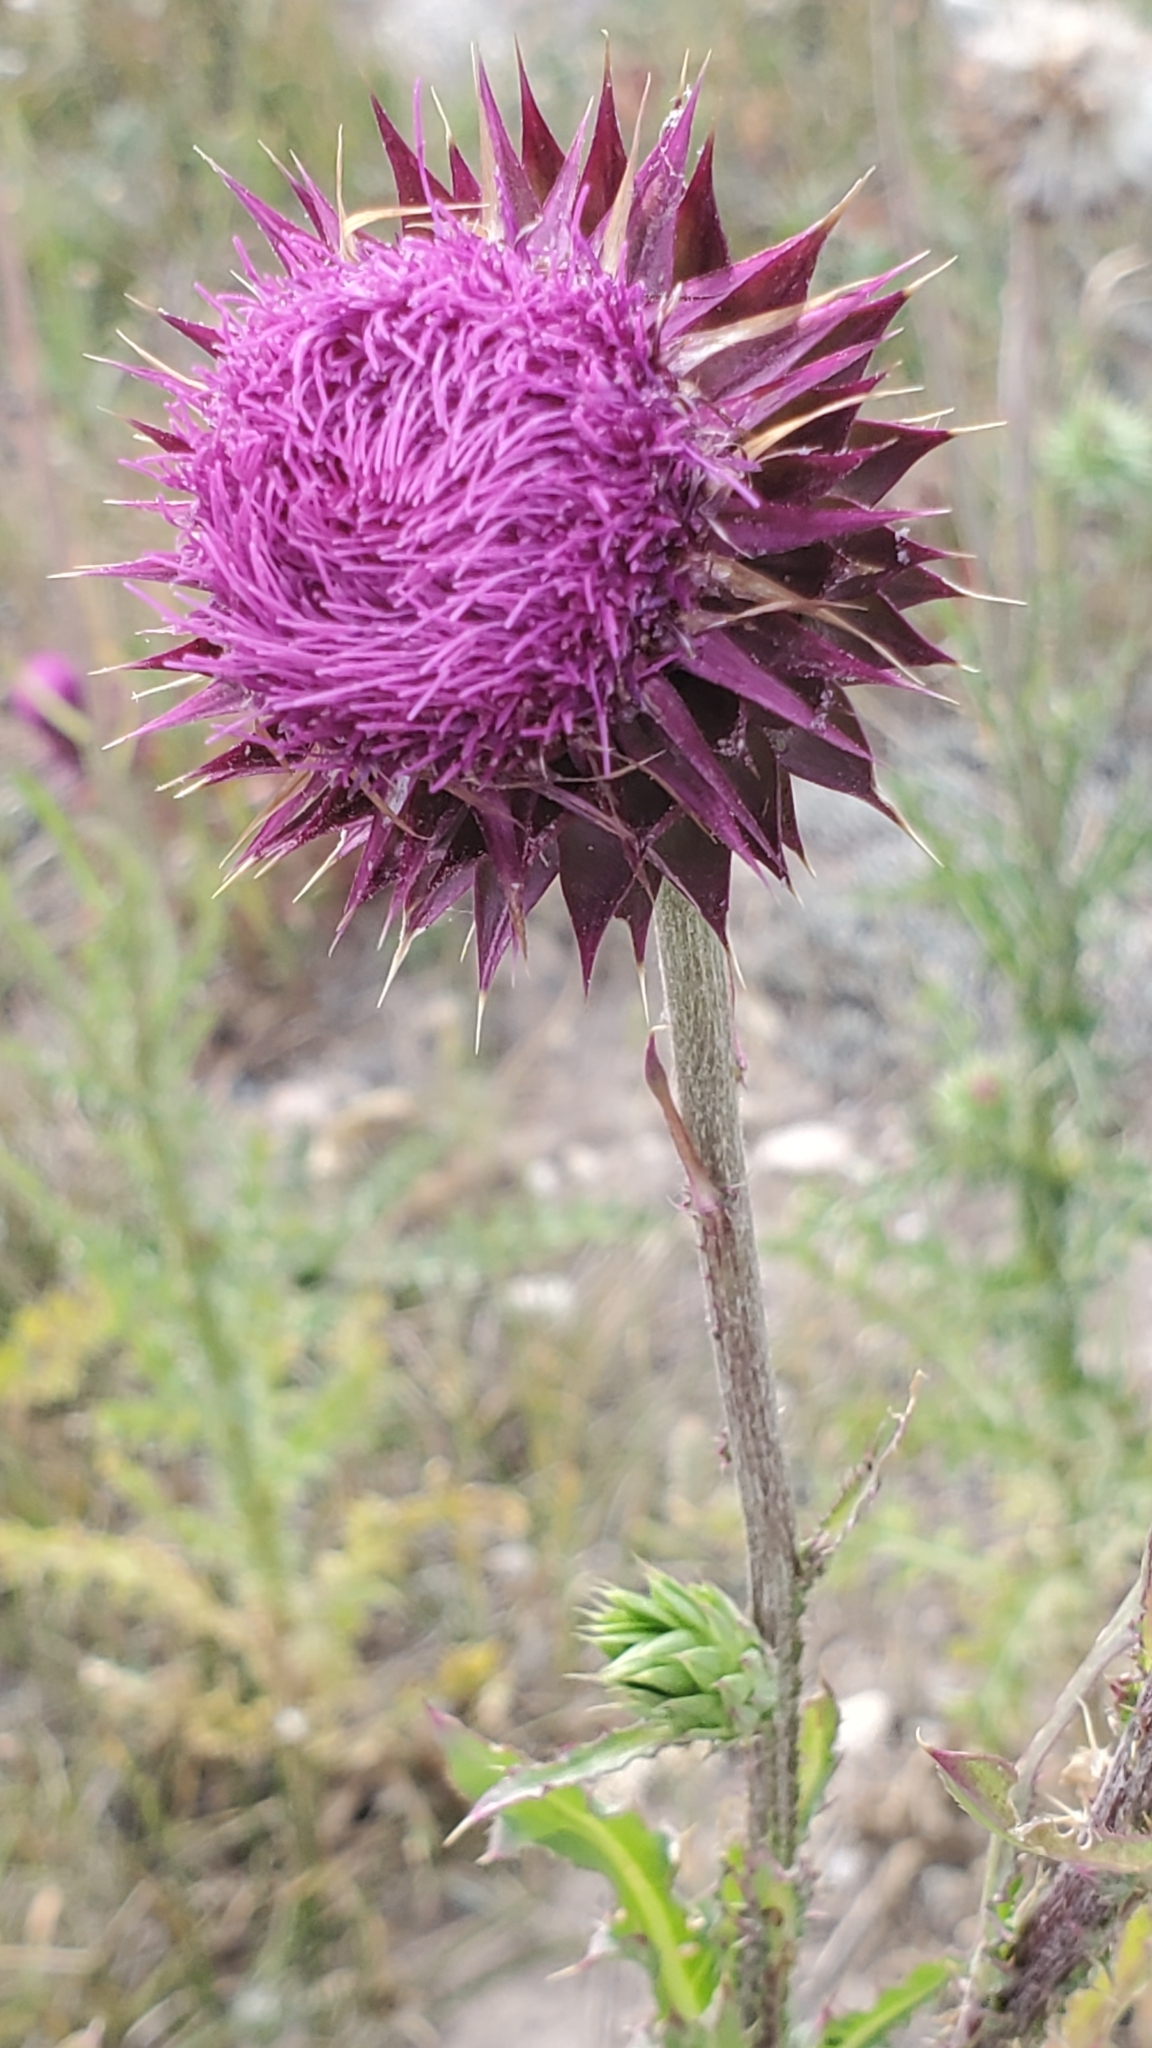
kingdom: Plantae
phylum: Tracheophyta
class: Magnoliopsida
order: Asterales
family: Asteraceae
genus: Carduus
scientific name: Carduus nutans
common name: Musk thistle
